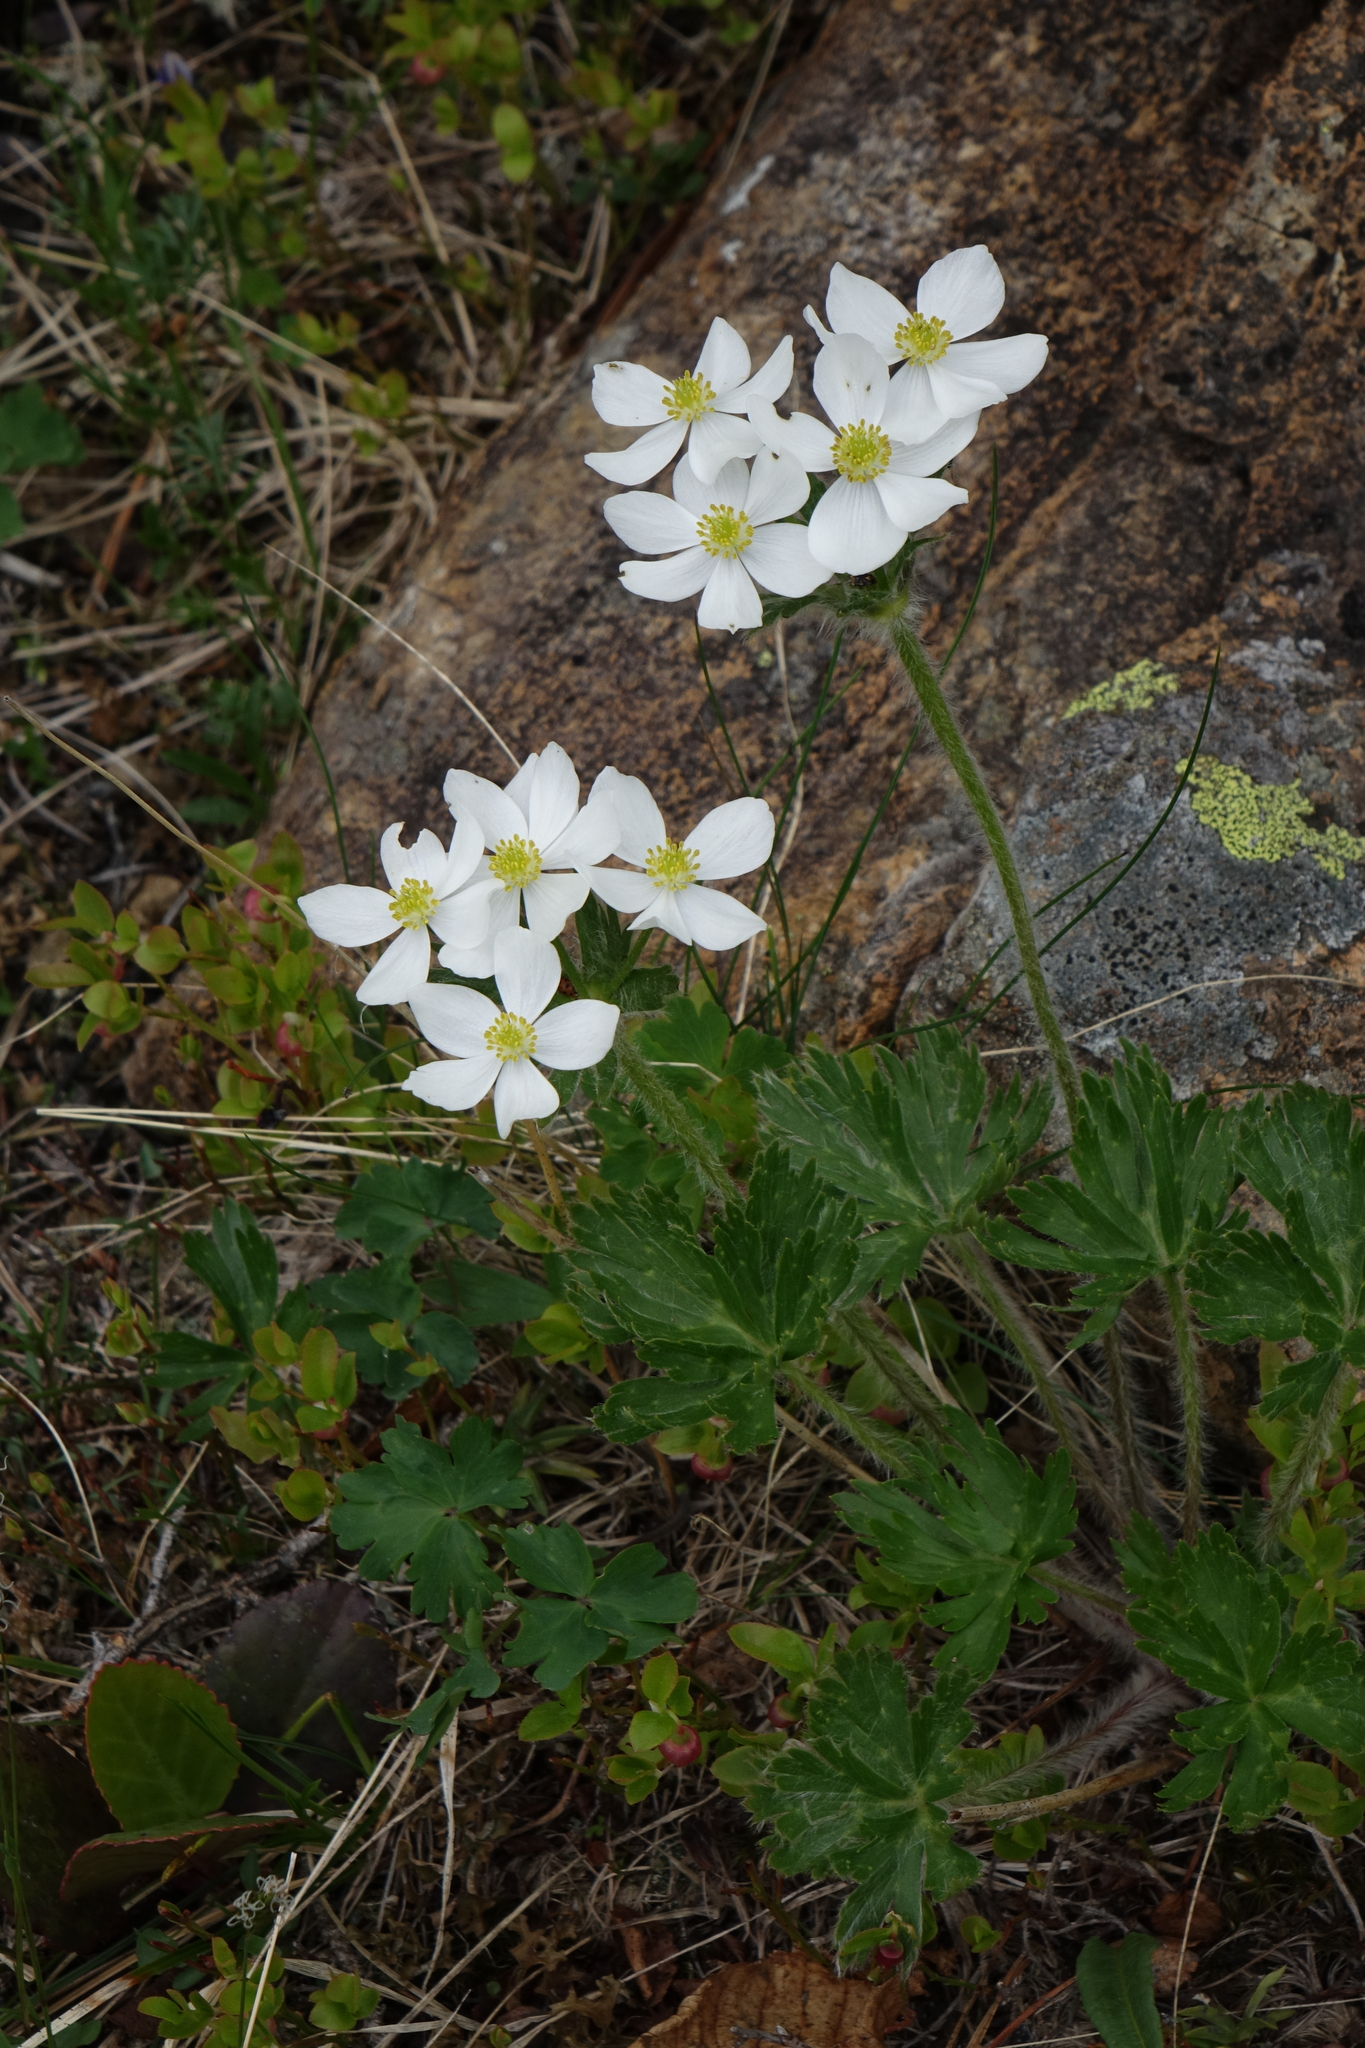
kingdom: Plantae
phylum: Tracheophyta
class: Magnoliopsida
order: Ranunculales
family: Ranunculaceae
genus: Anemonastrum
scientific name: Anemonastrum narcissiflorum
